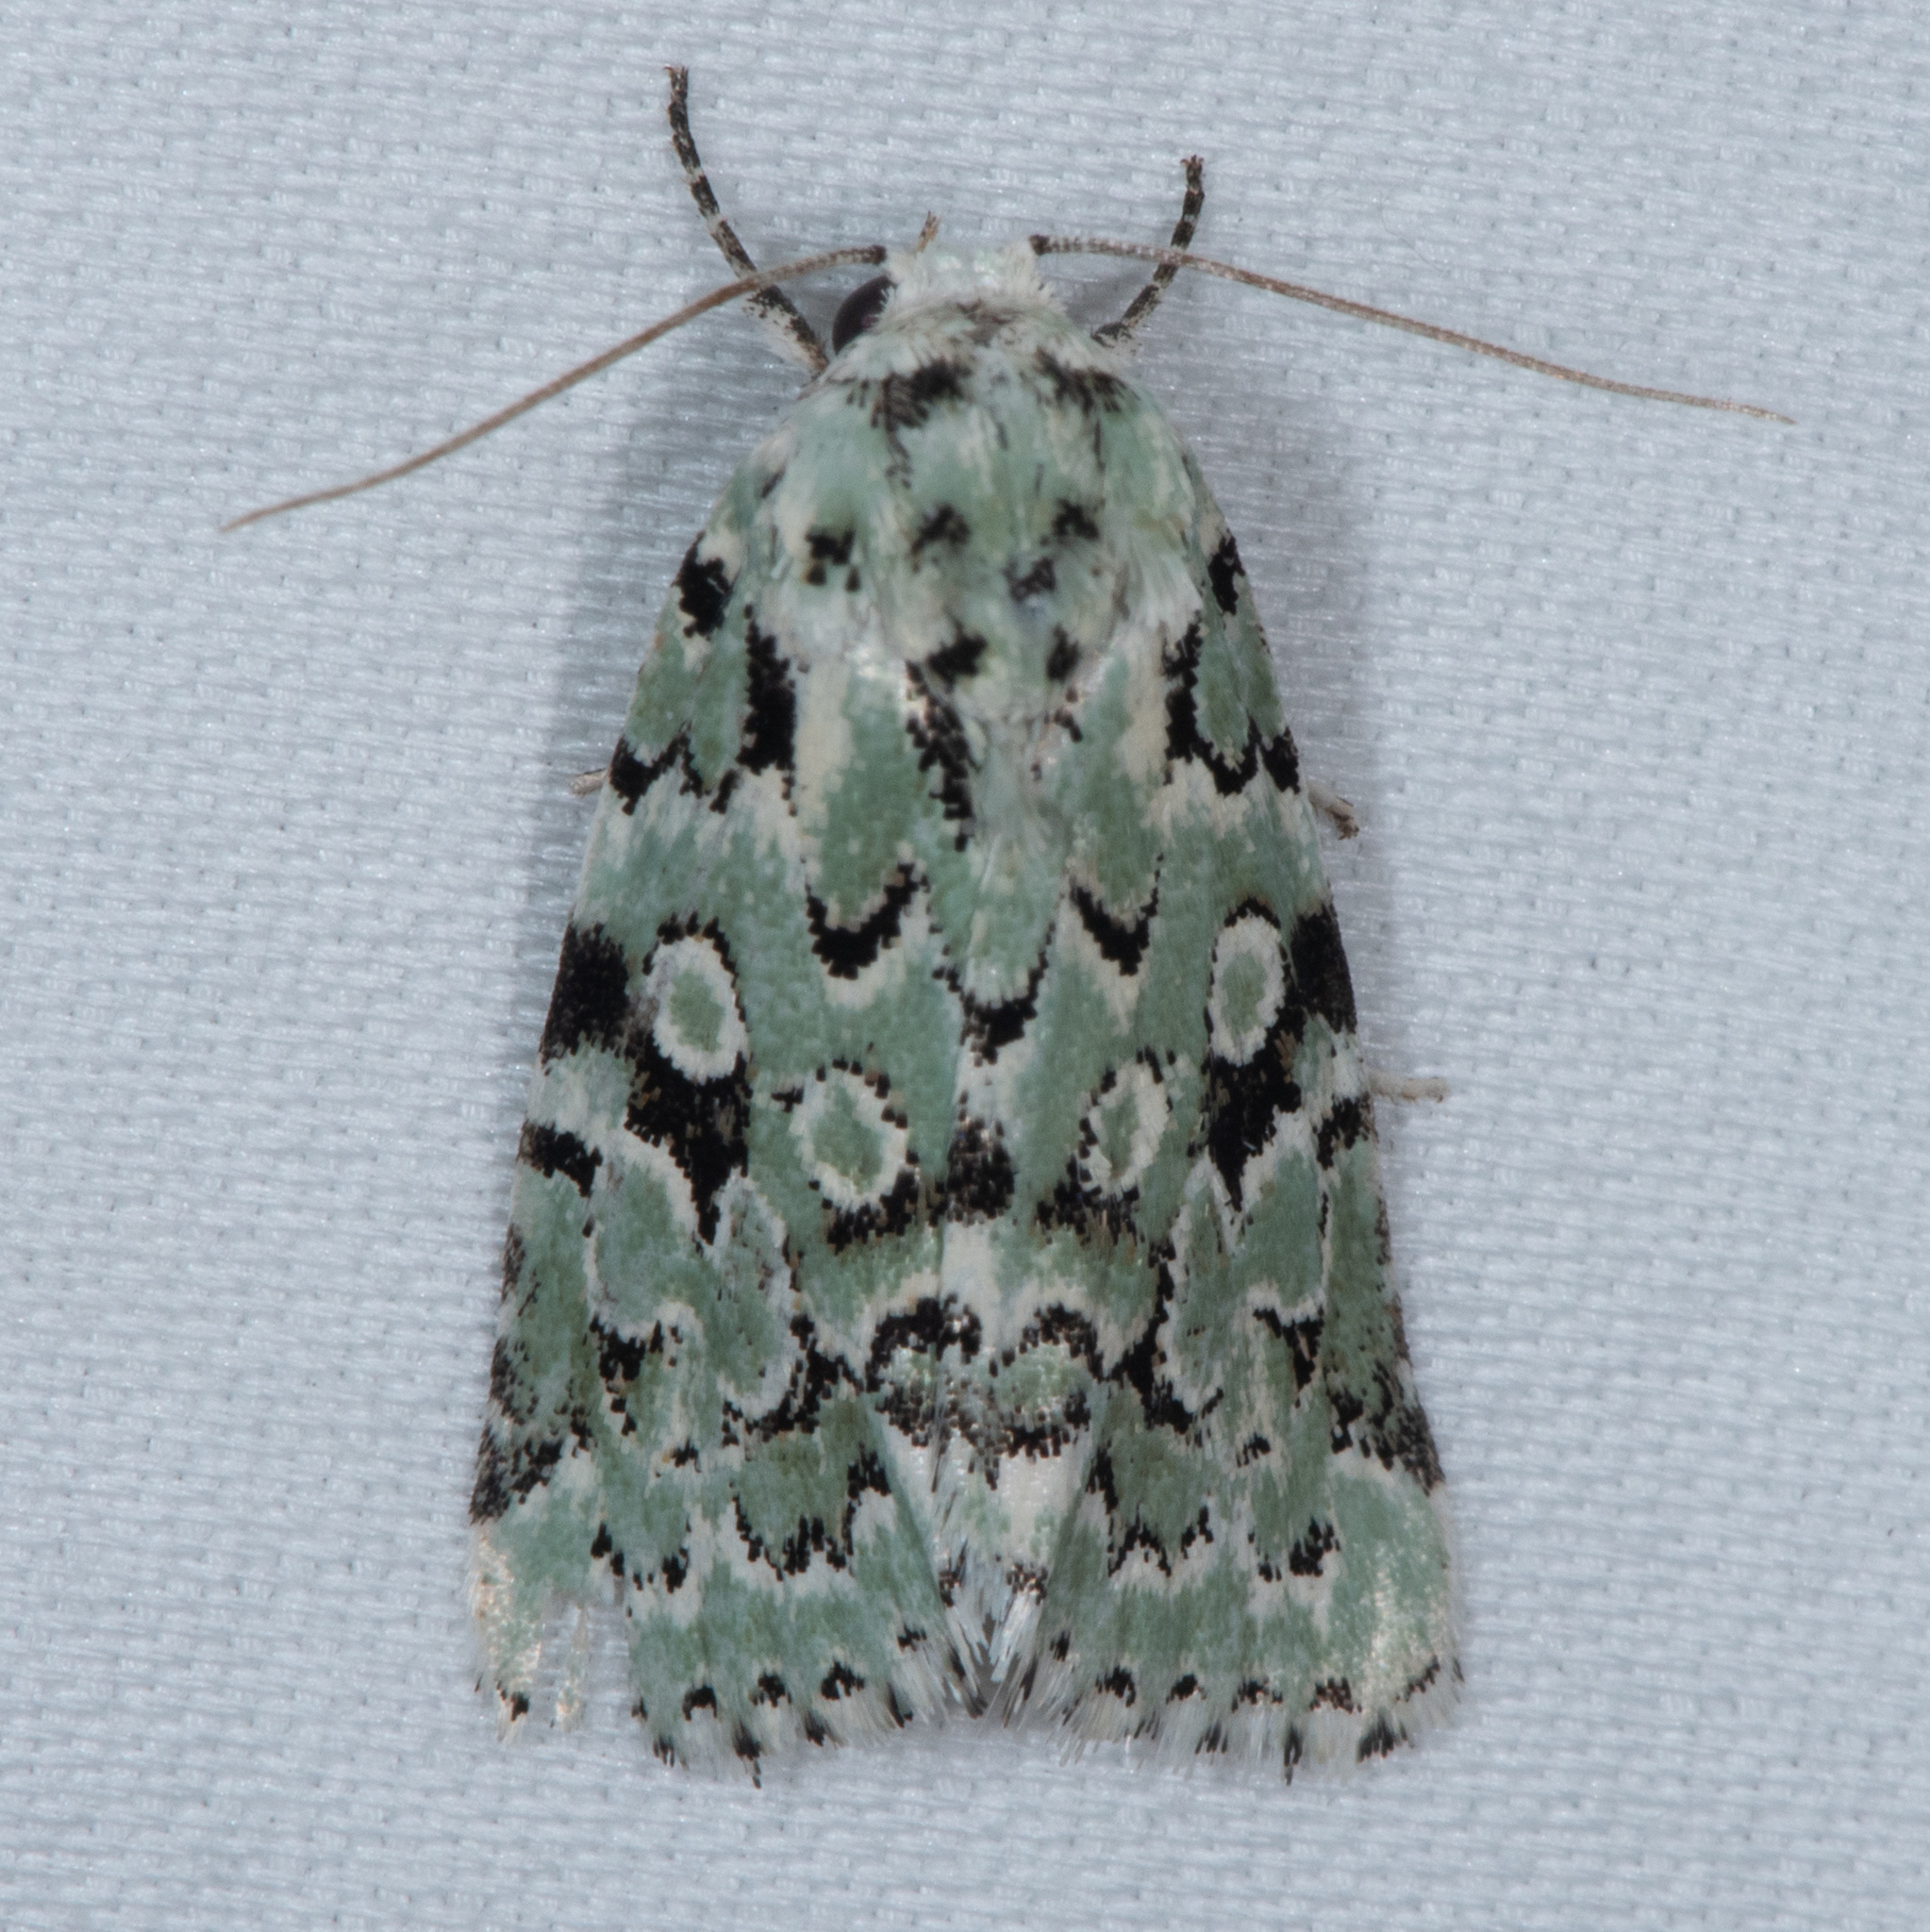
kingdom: Animalia
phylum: Arthropoda
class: Insecta
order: Lepidoptera
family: Noctuidae
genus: Bryolymnia
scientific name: Bryolymnia viridata
